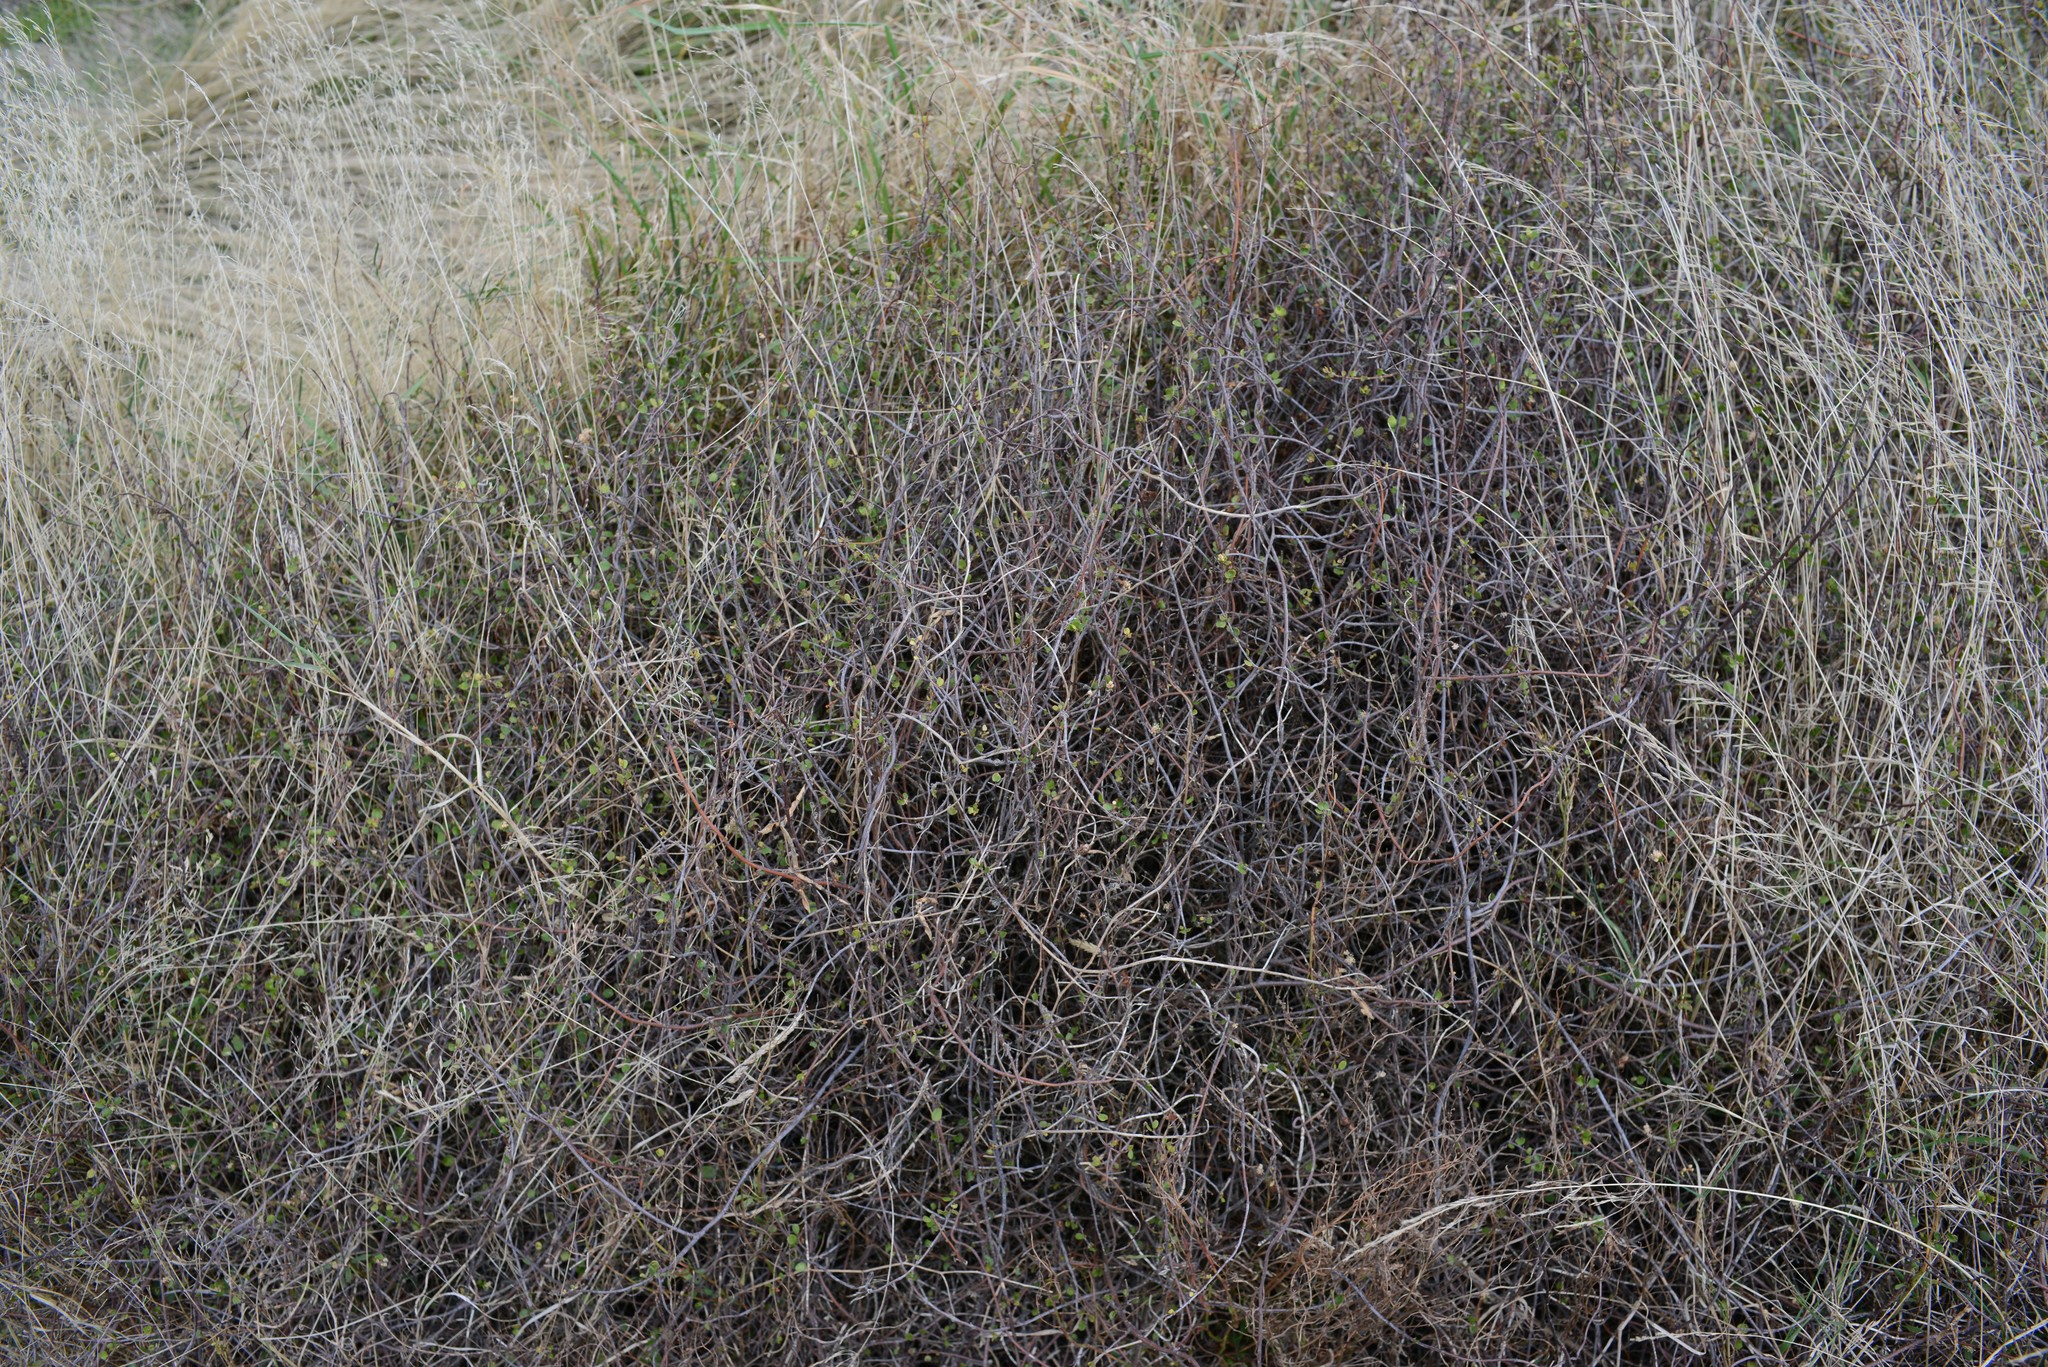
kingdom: Plantae
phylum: Tracheophyta
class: Magnoliopsida
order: Caryophyllales
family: Polygonaceae
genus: Muehlenbeckia
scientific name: Muehlenbeckia complexa
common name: Wireplant
